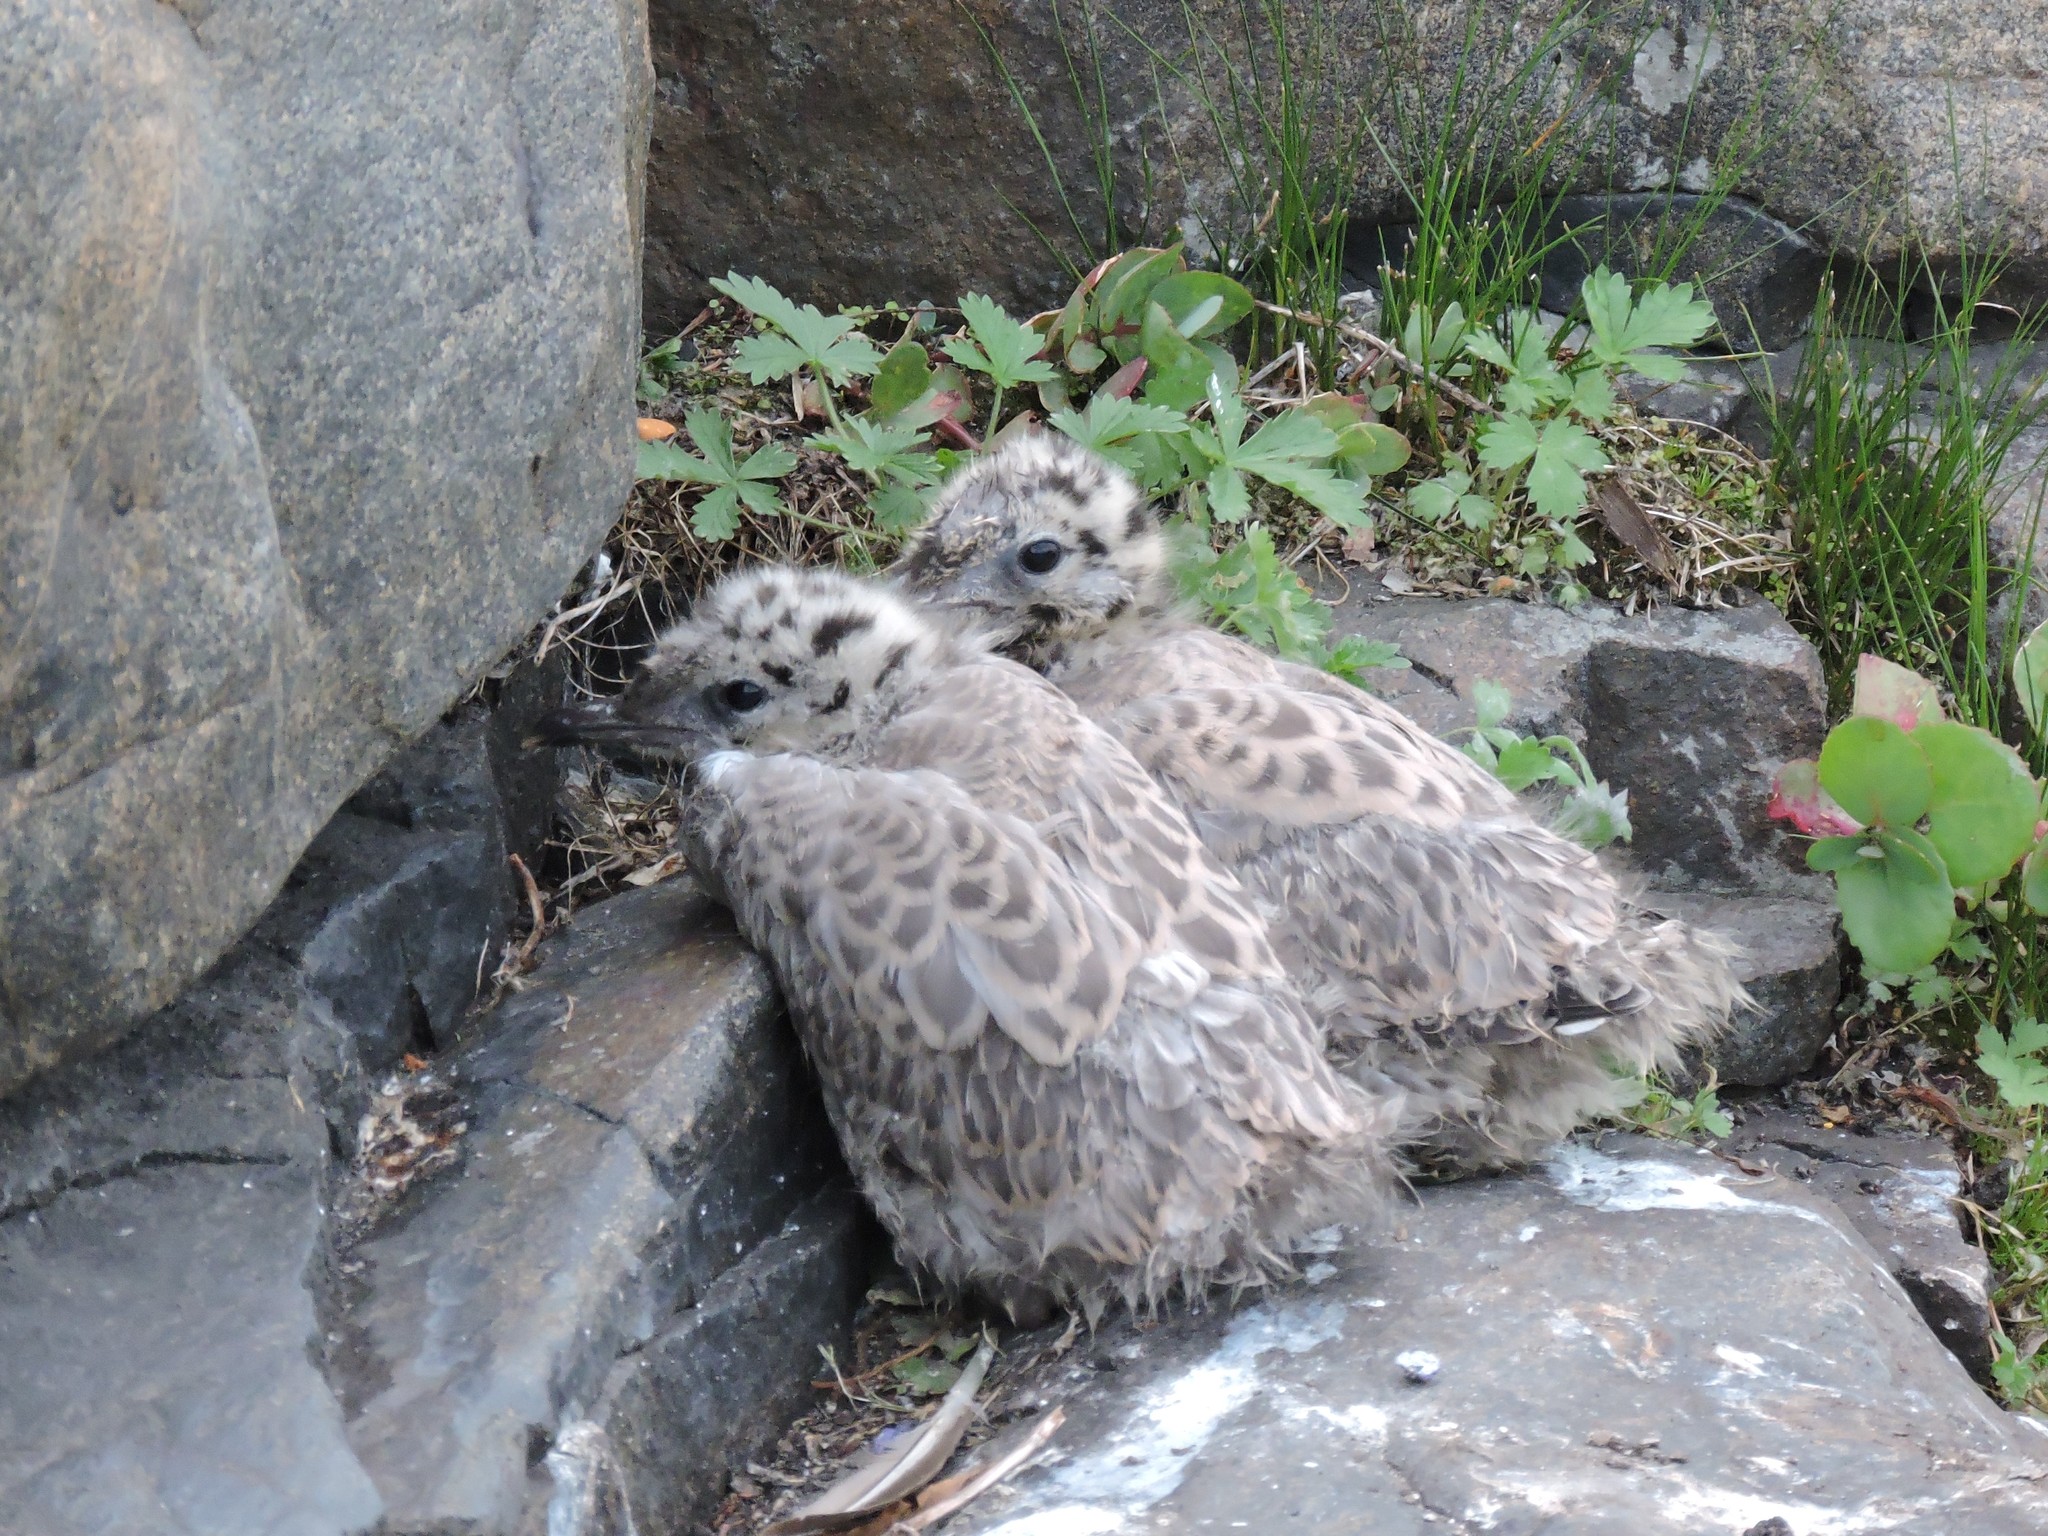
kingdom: Animalia
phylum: Chordata
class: Aves
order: Charadriiformes
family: Laridae
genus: Larus
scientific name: Larus canus
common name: Mew gull
